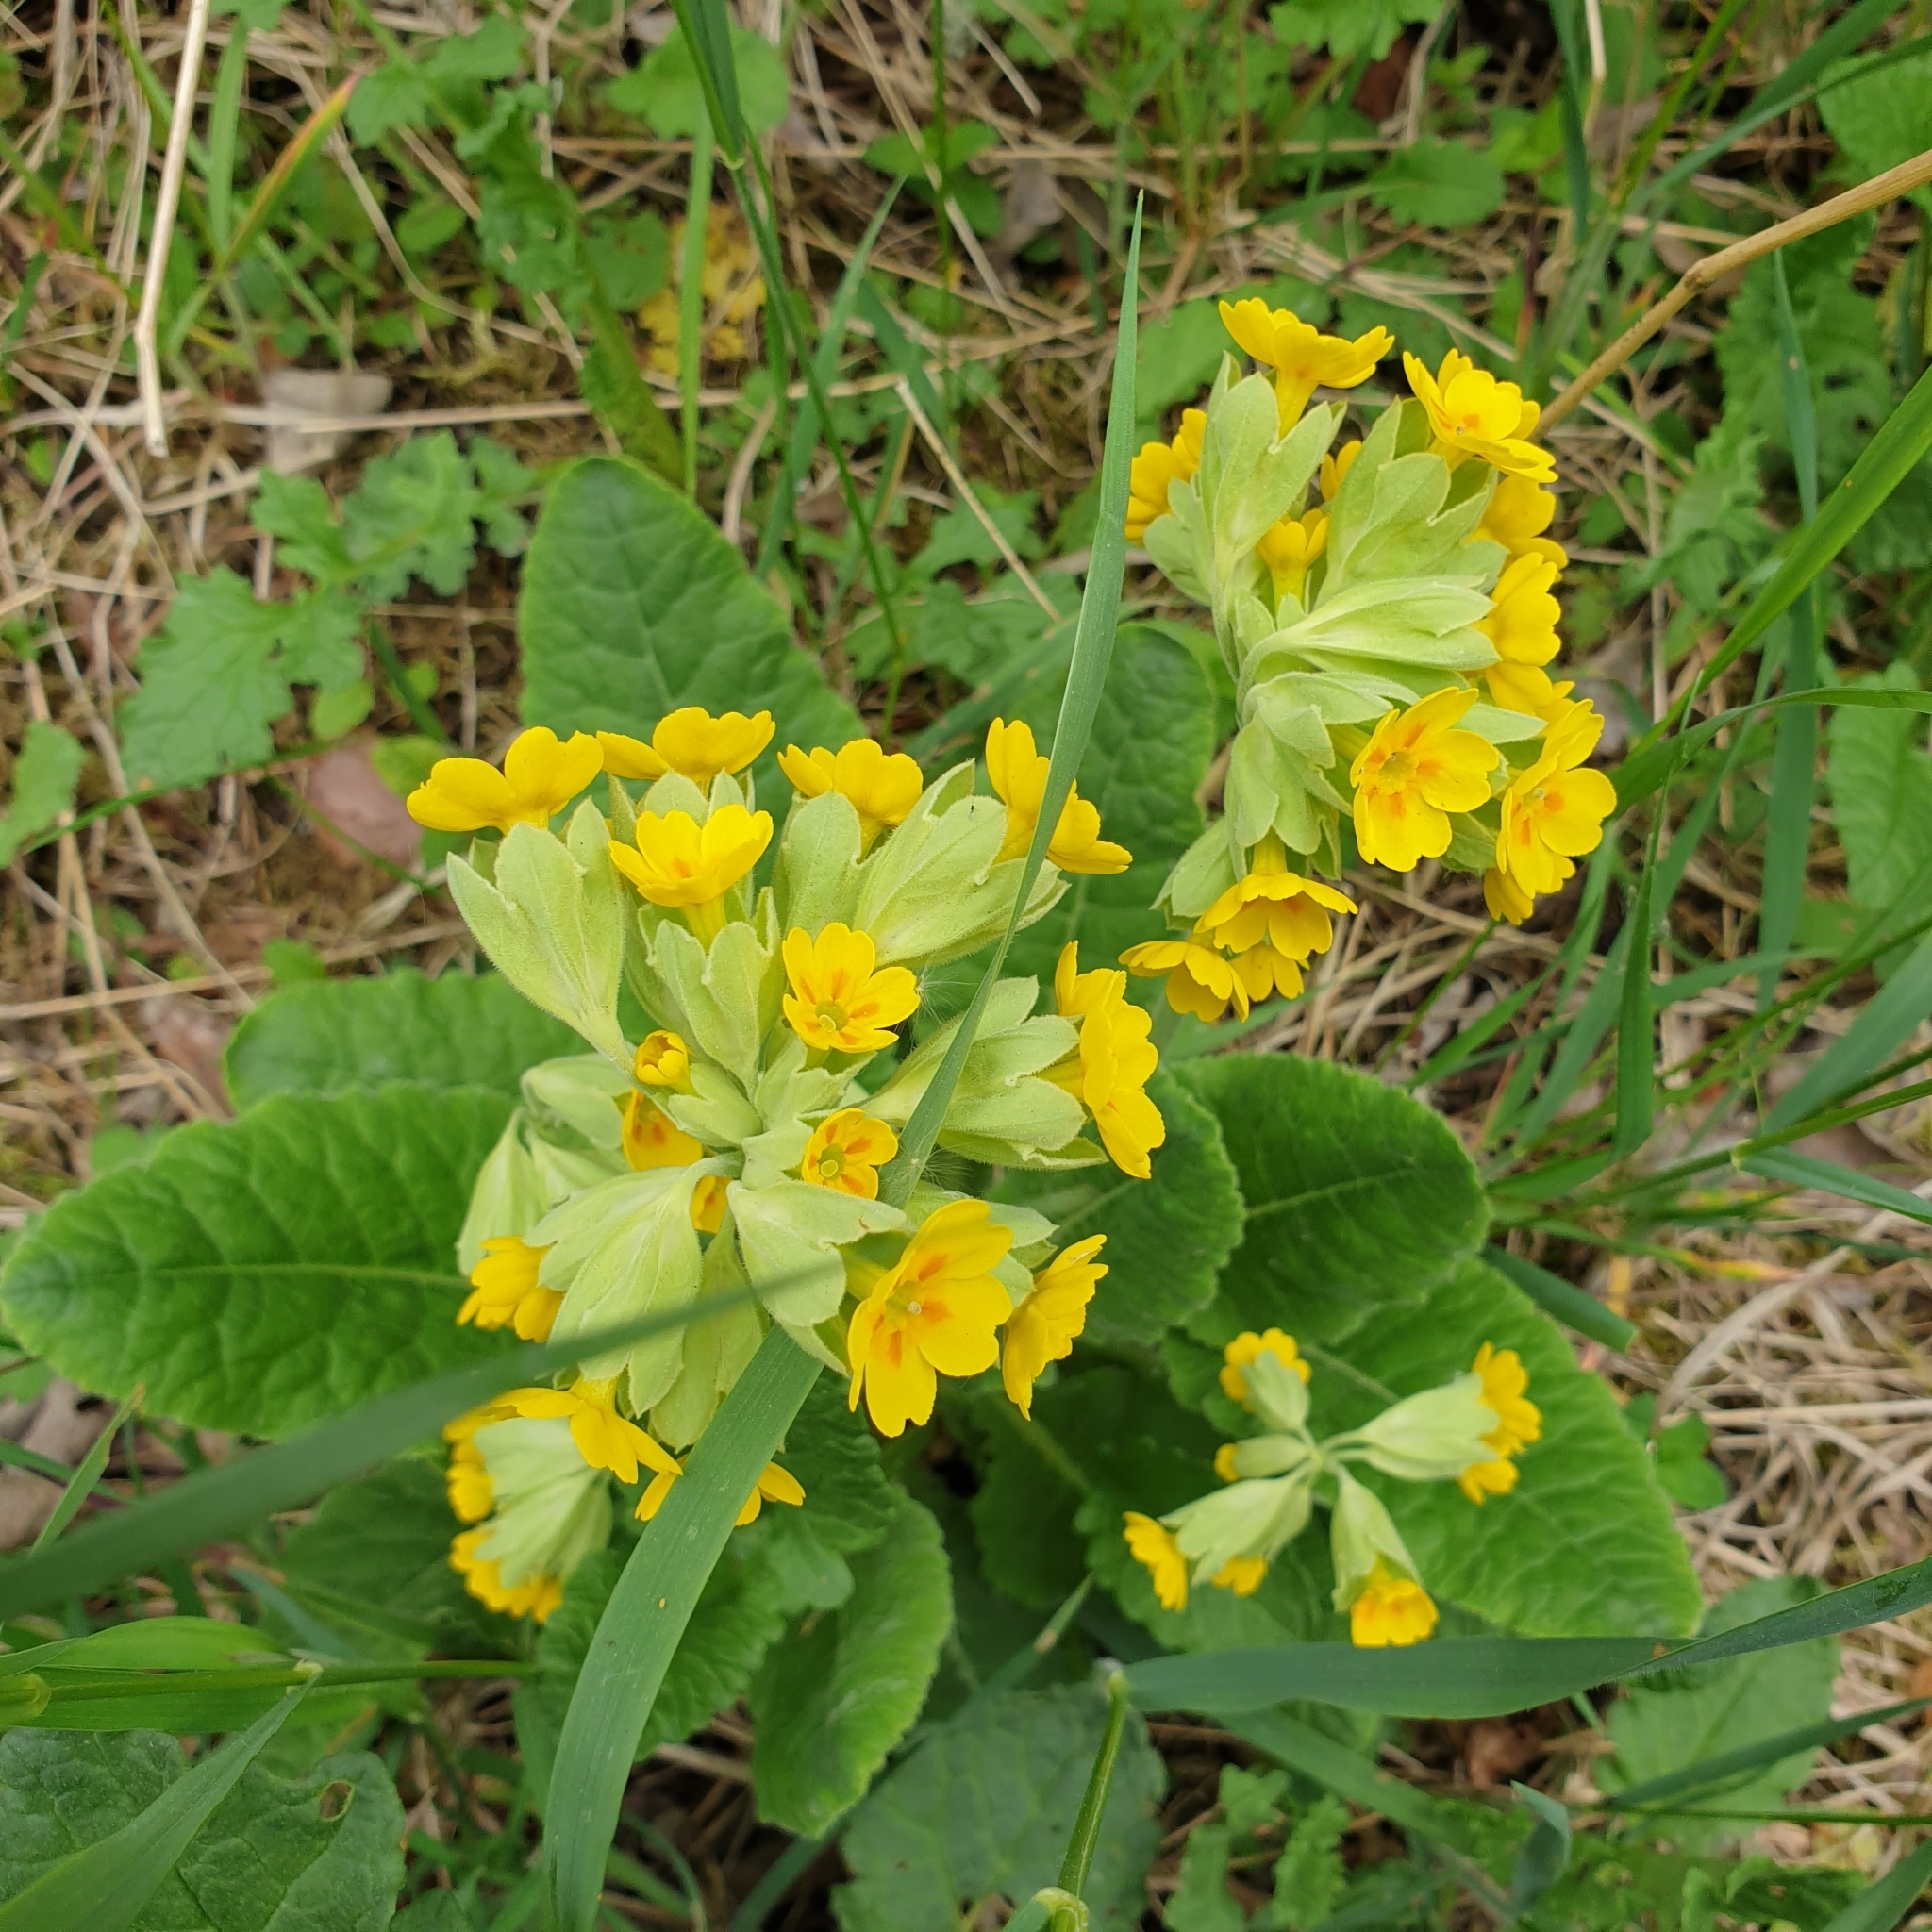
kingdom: Plantae
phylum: Tracheophyta
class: Magnoliopsida
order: Ericales
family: Primulaceae
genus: Primula
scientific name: Primula veris
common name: Cowslip
